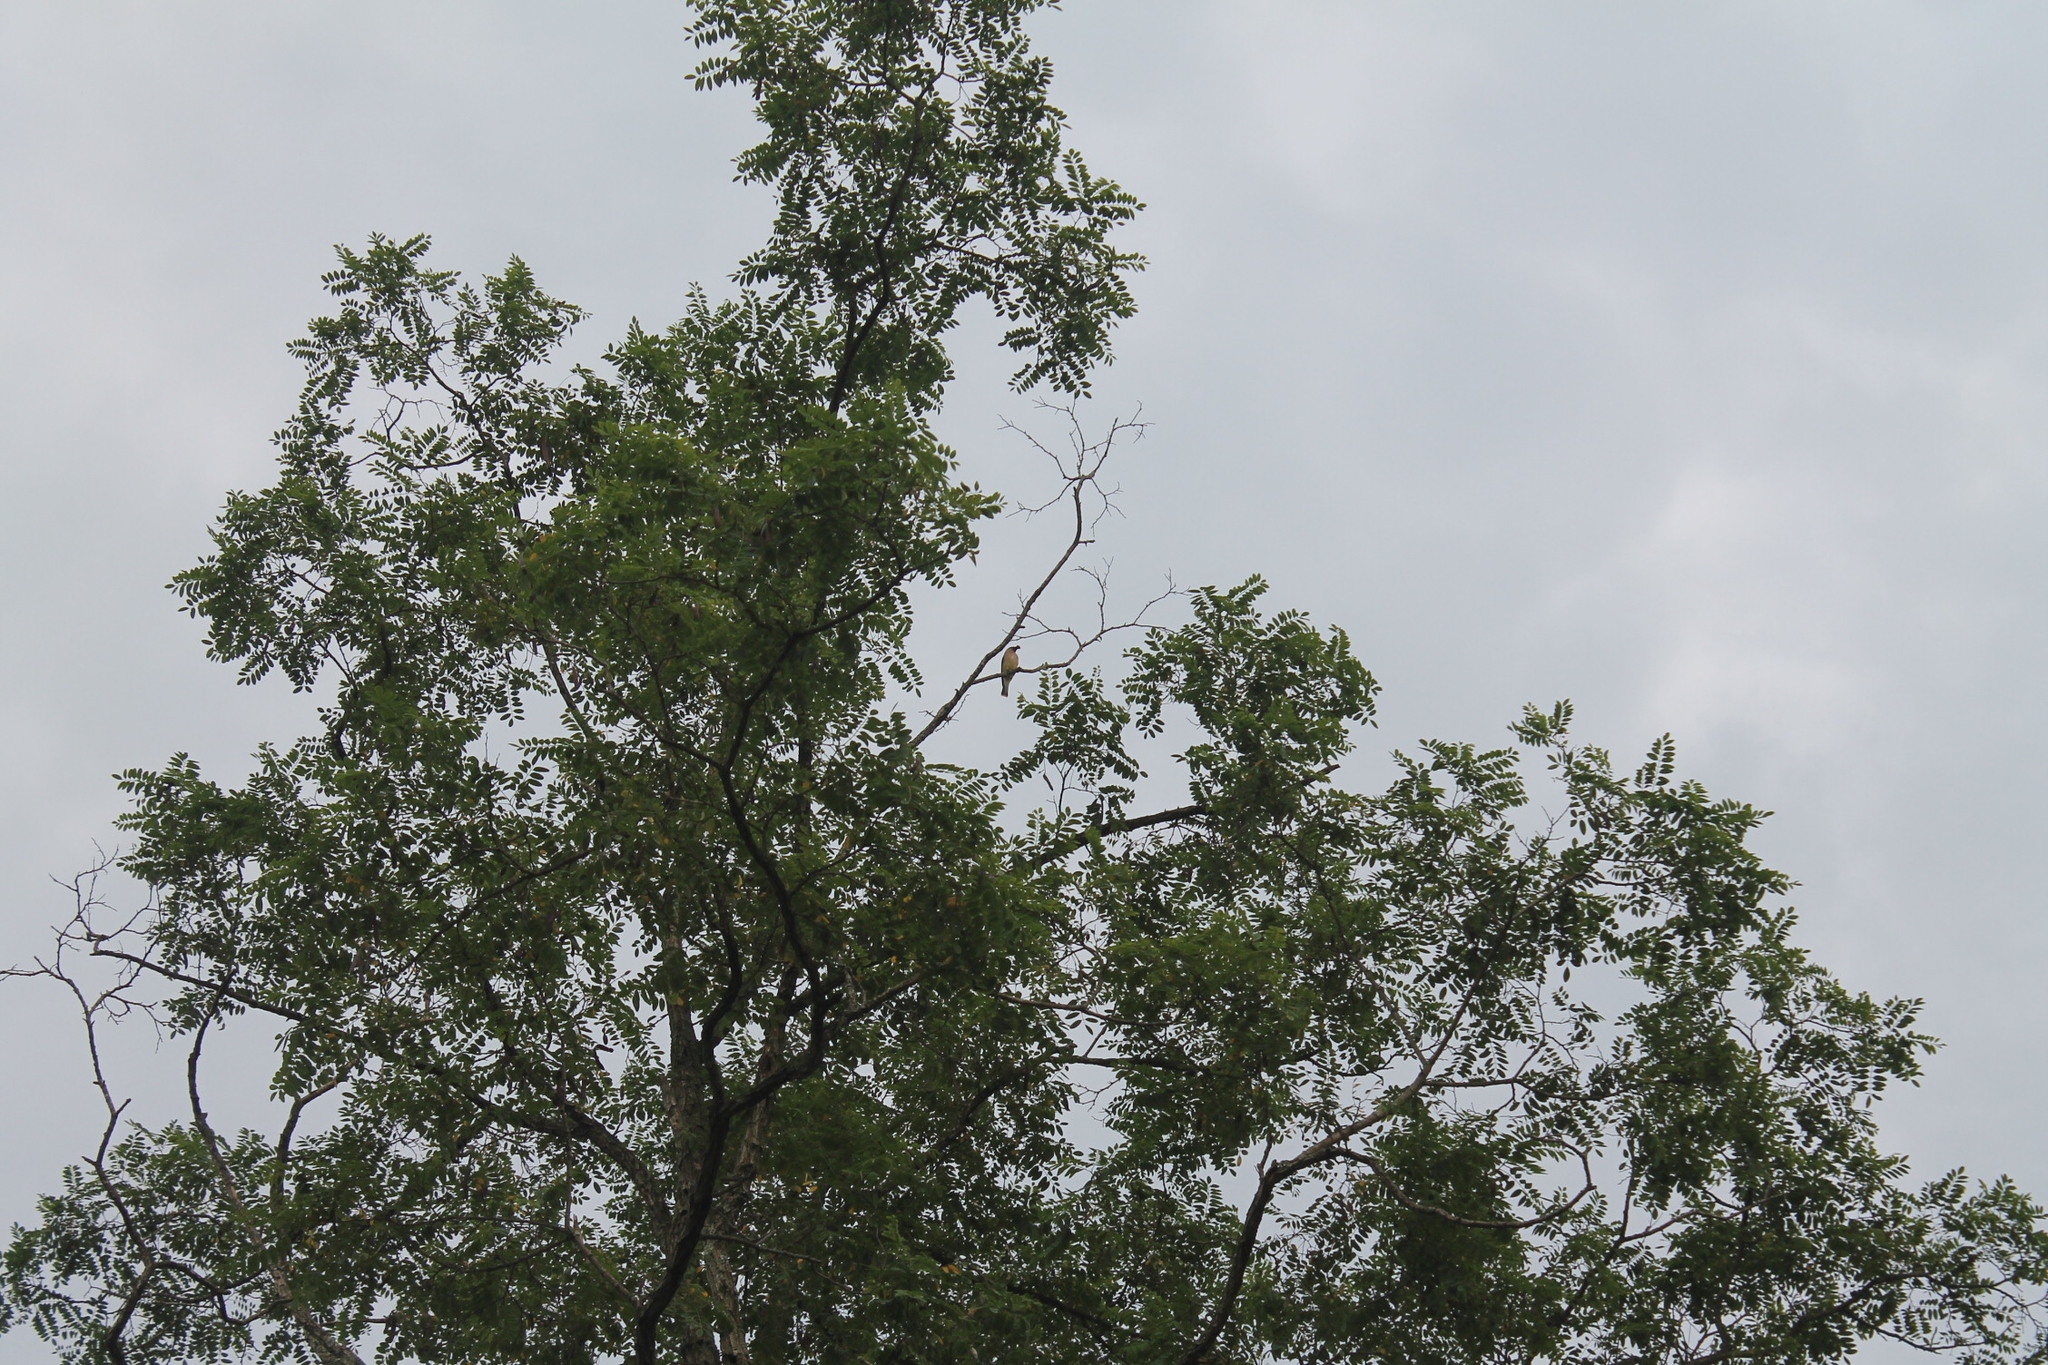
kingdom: Animalia
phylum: Chordata
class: Aves
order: Passeriformes
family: Bombycillidae
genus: Bombycilla
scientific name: Bombycilla cedrorum
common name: Cedar waxwing
